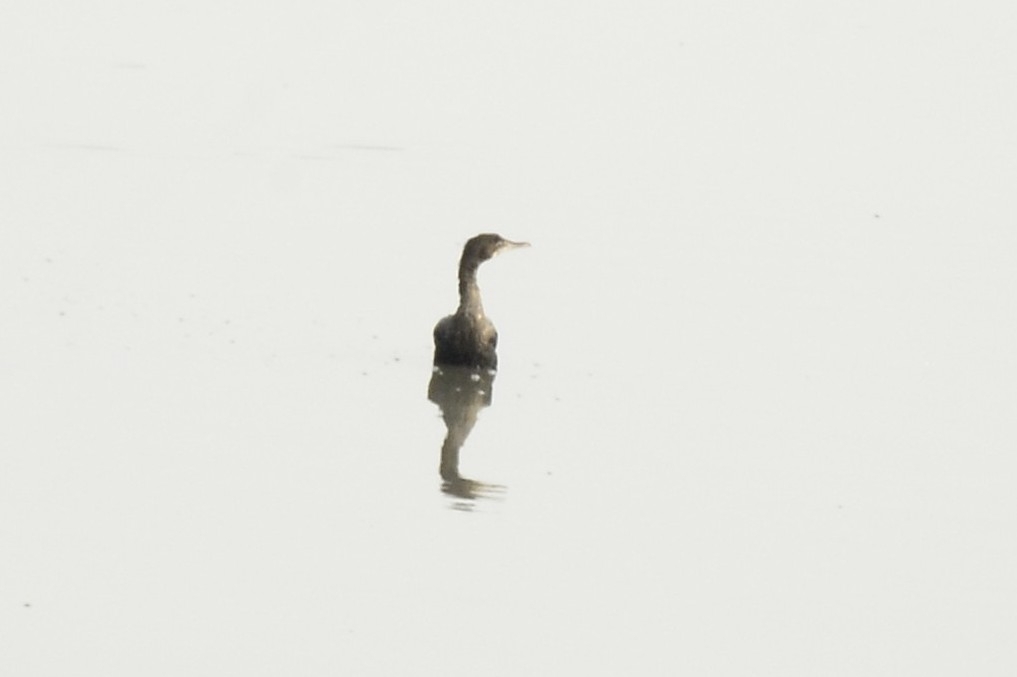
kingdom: Animalia
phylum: Chordata
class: Aves
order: Suliformes
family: Phalacrocoracidae
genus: Microcarbo
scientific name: Microcarbo niger
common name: Little cormorant
